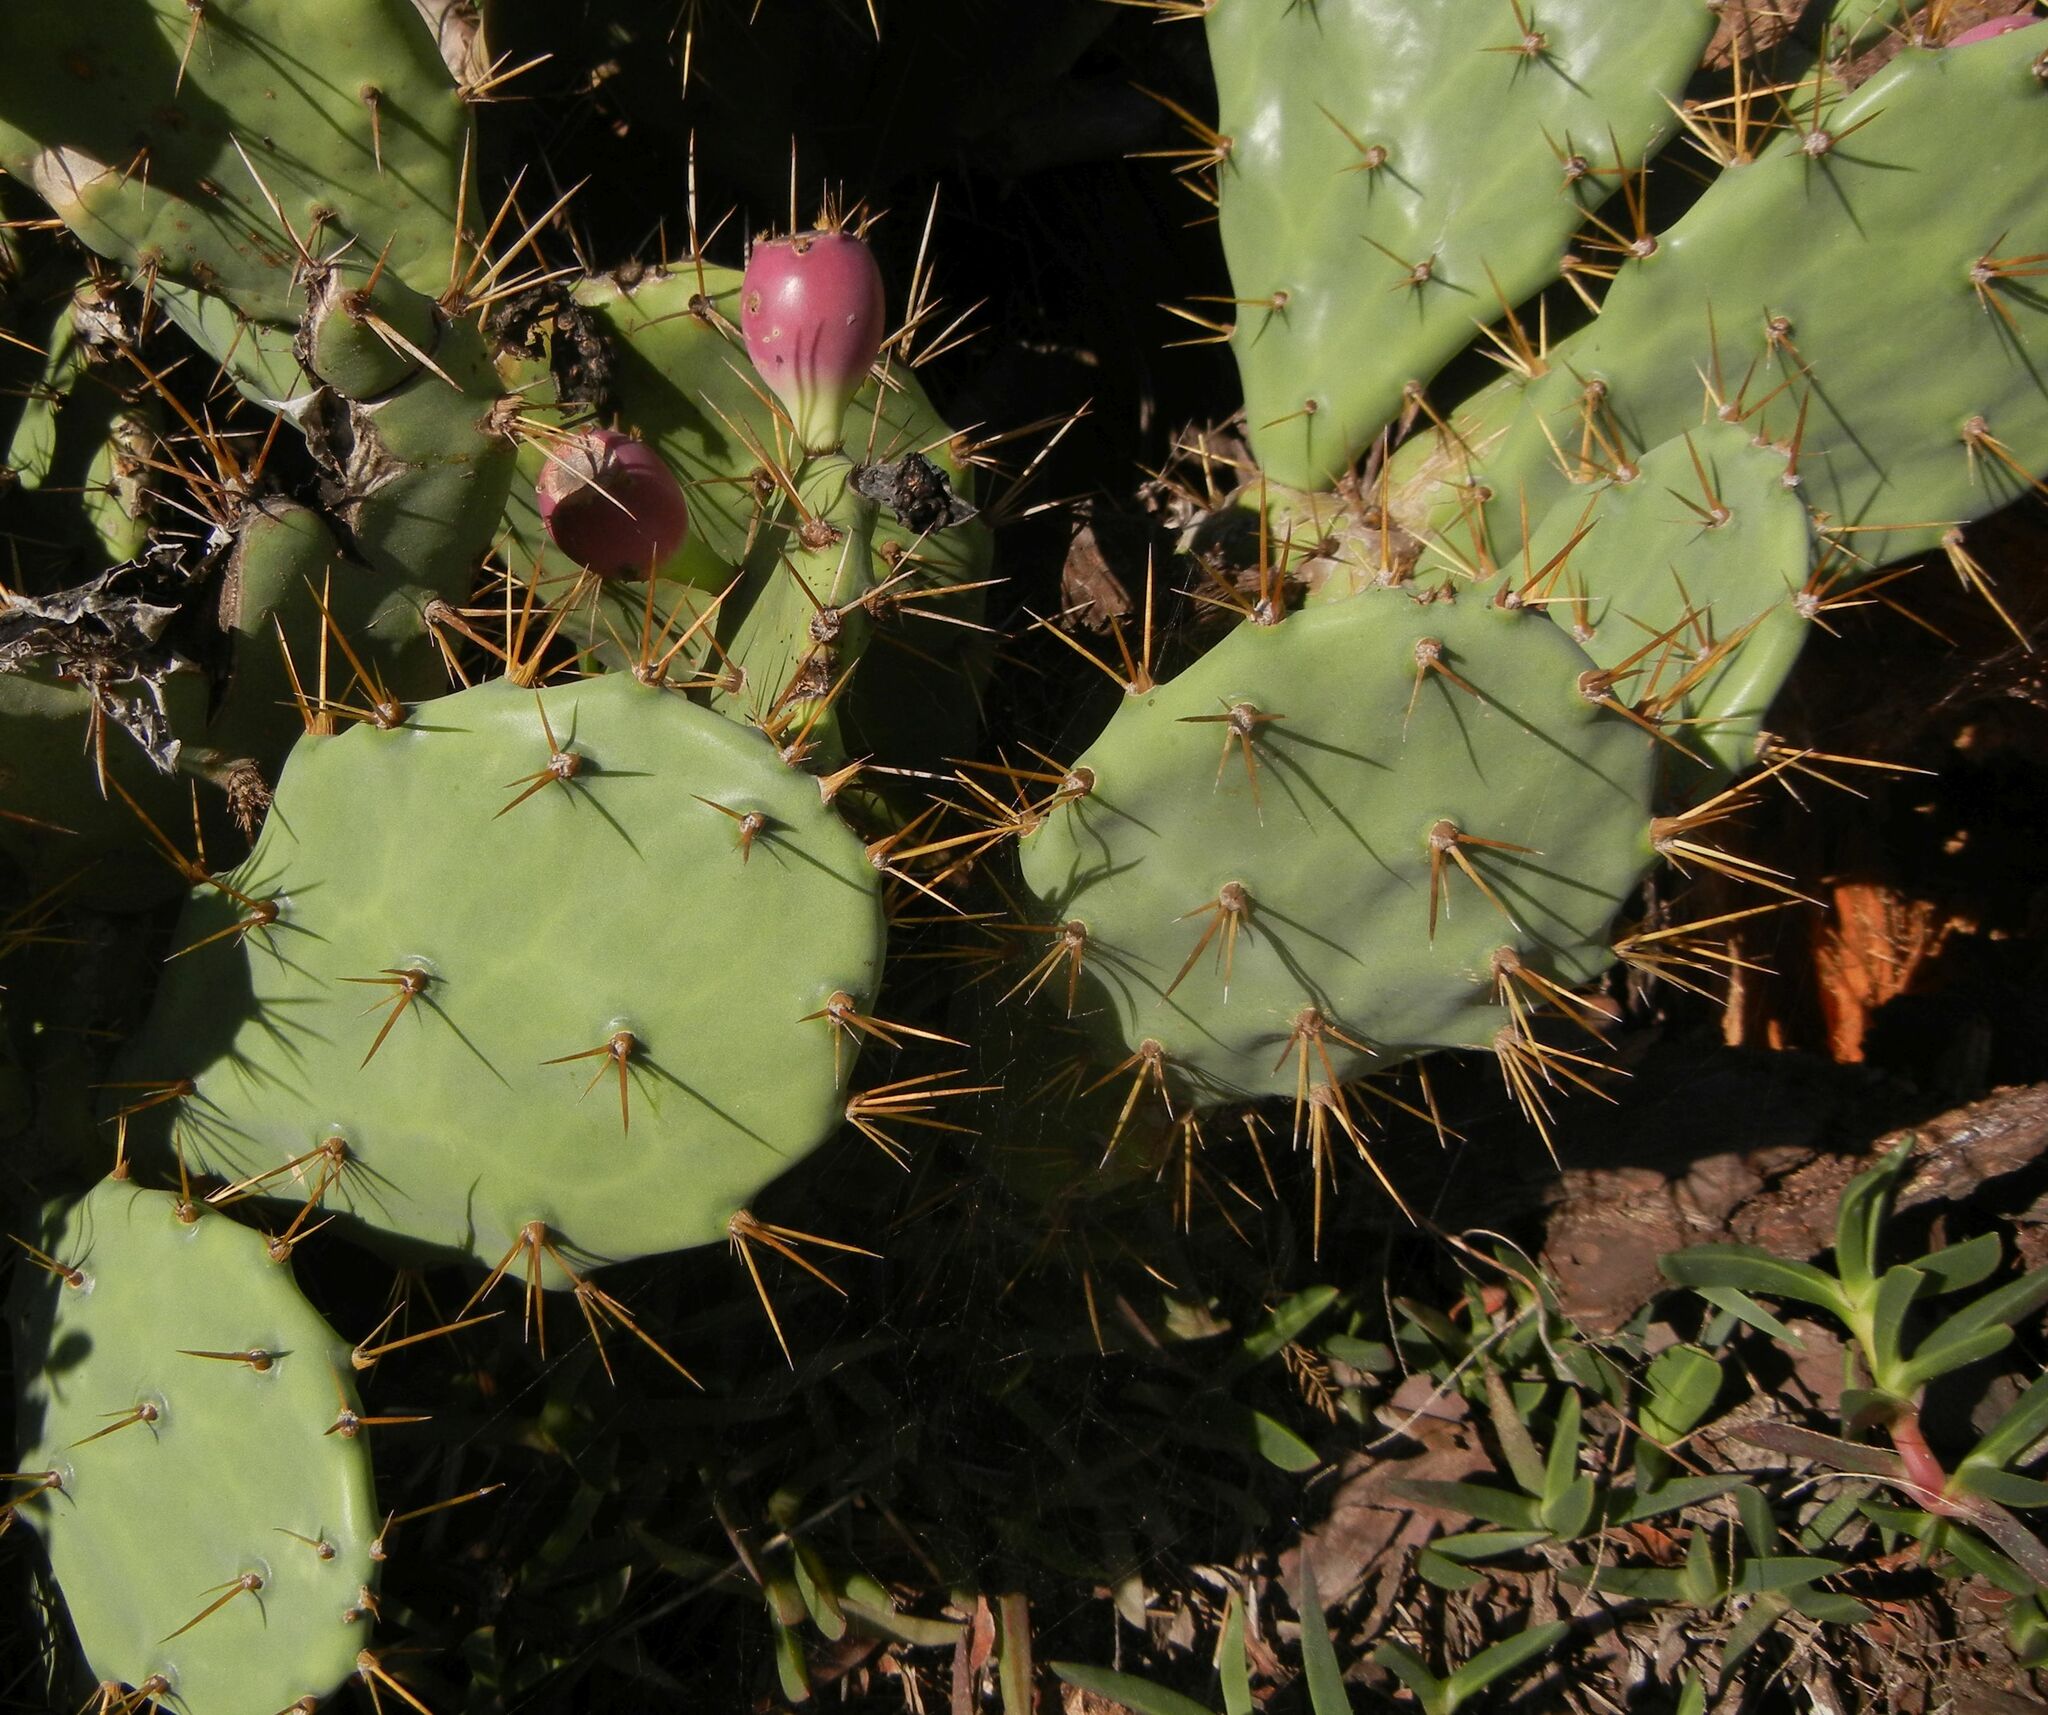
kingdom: Plantae
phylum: Tracheophyta
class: Magnoliopsida
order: Caryophyllales
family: Cactaceae
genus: Opuntia
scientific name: Opuntia stricta
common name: Erect pricklypear
